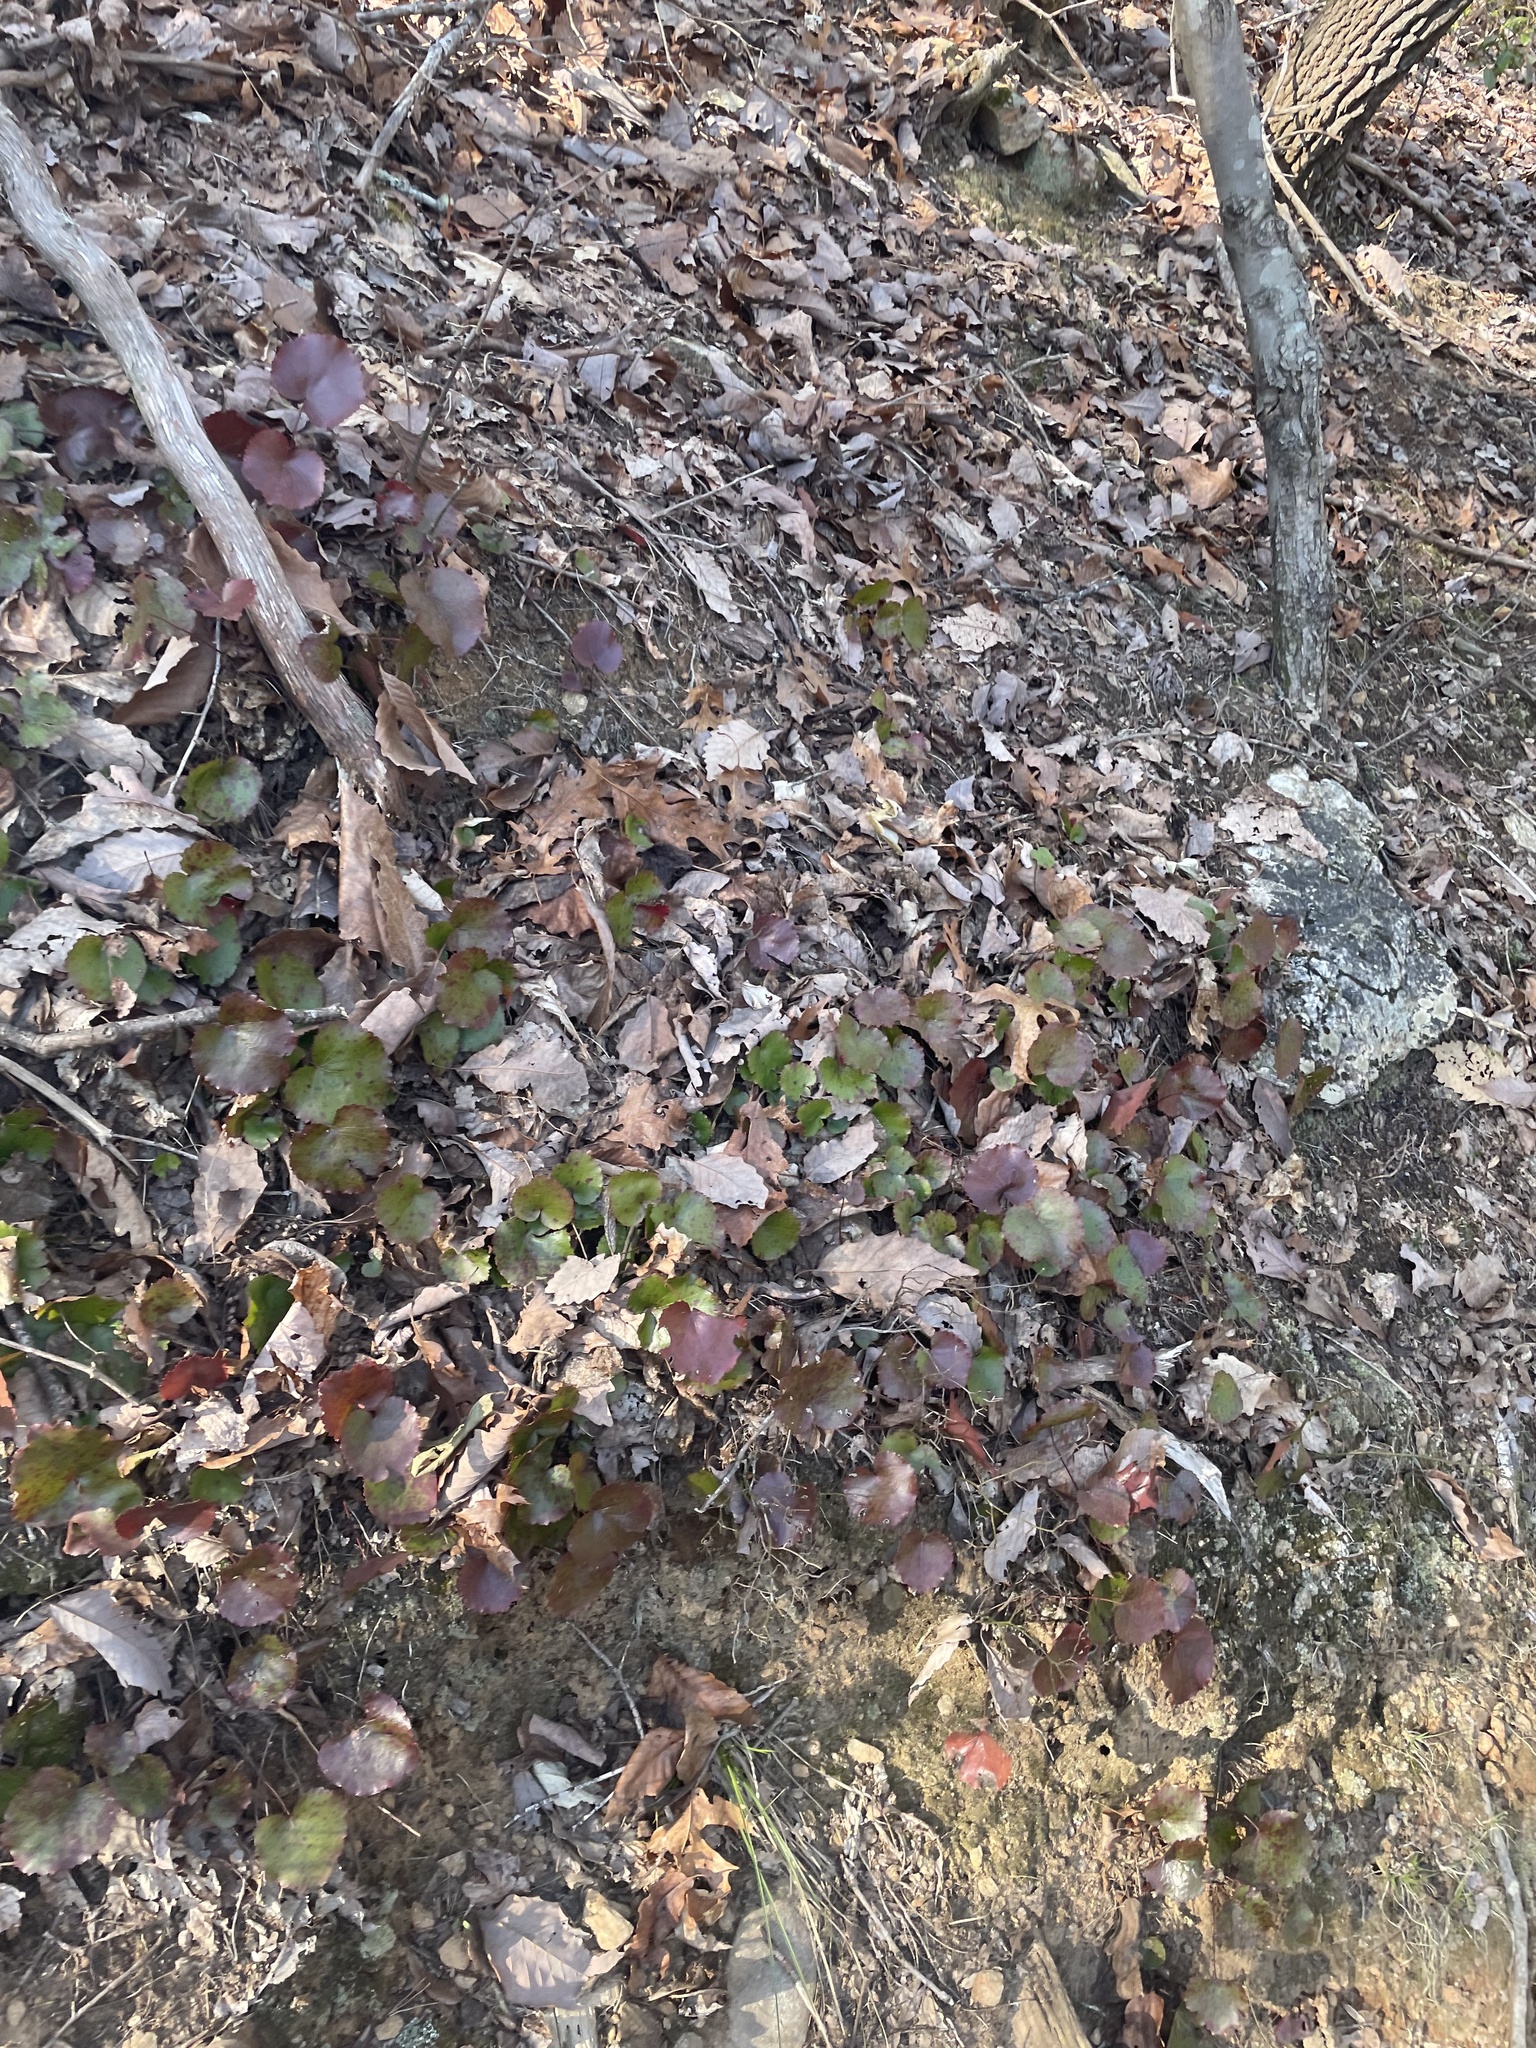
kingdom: Plantae
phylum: Tracheophyta
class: Magnoliopsida
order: Ericales
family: Diapensiaceae
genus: Galax
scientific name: Galax urceolata
